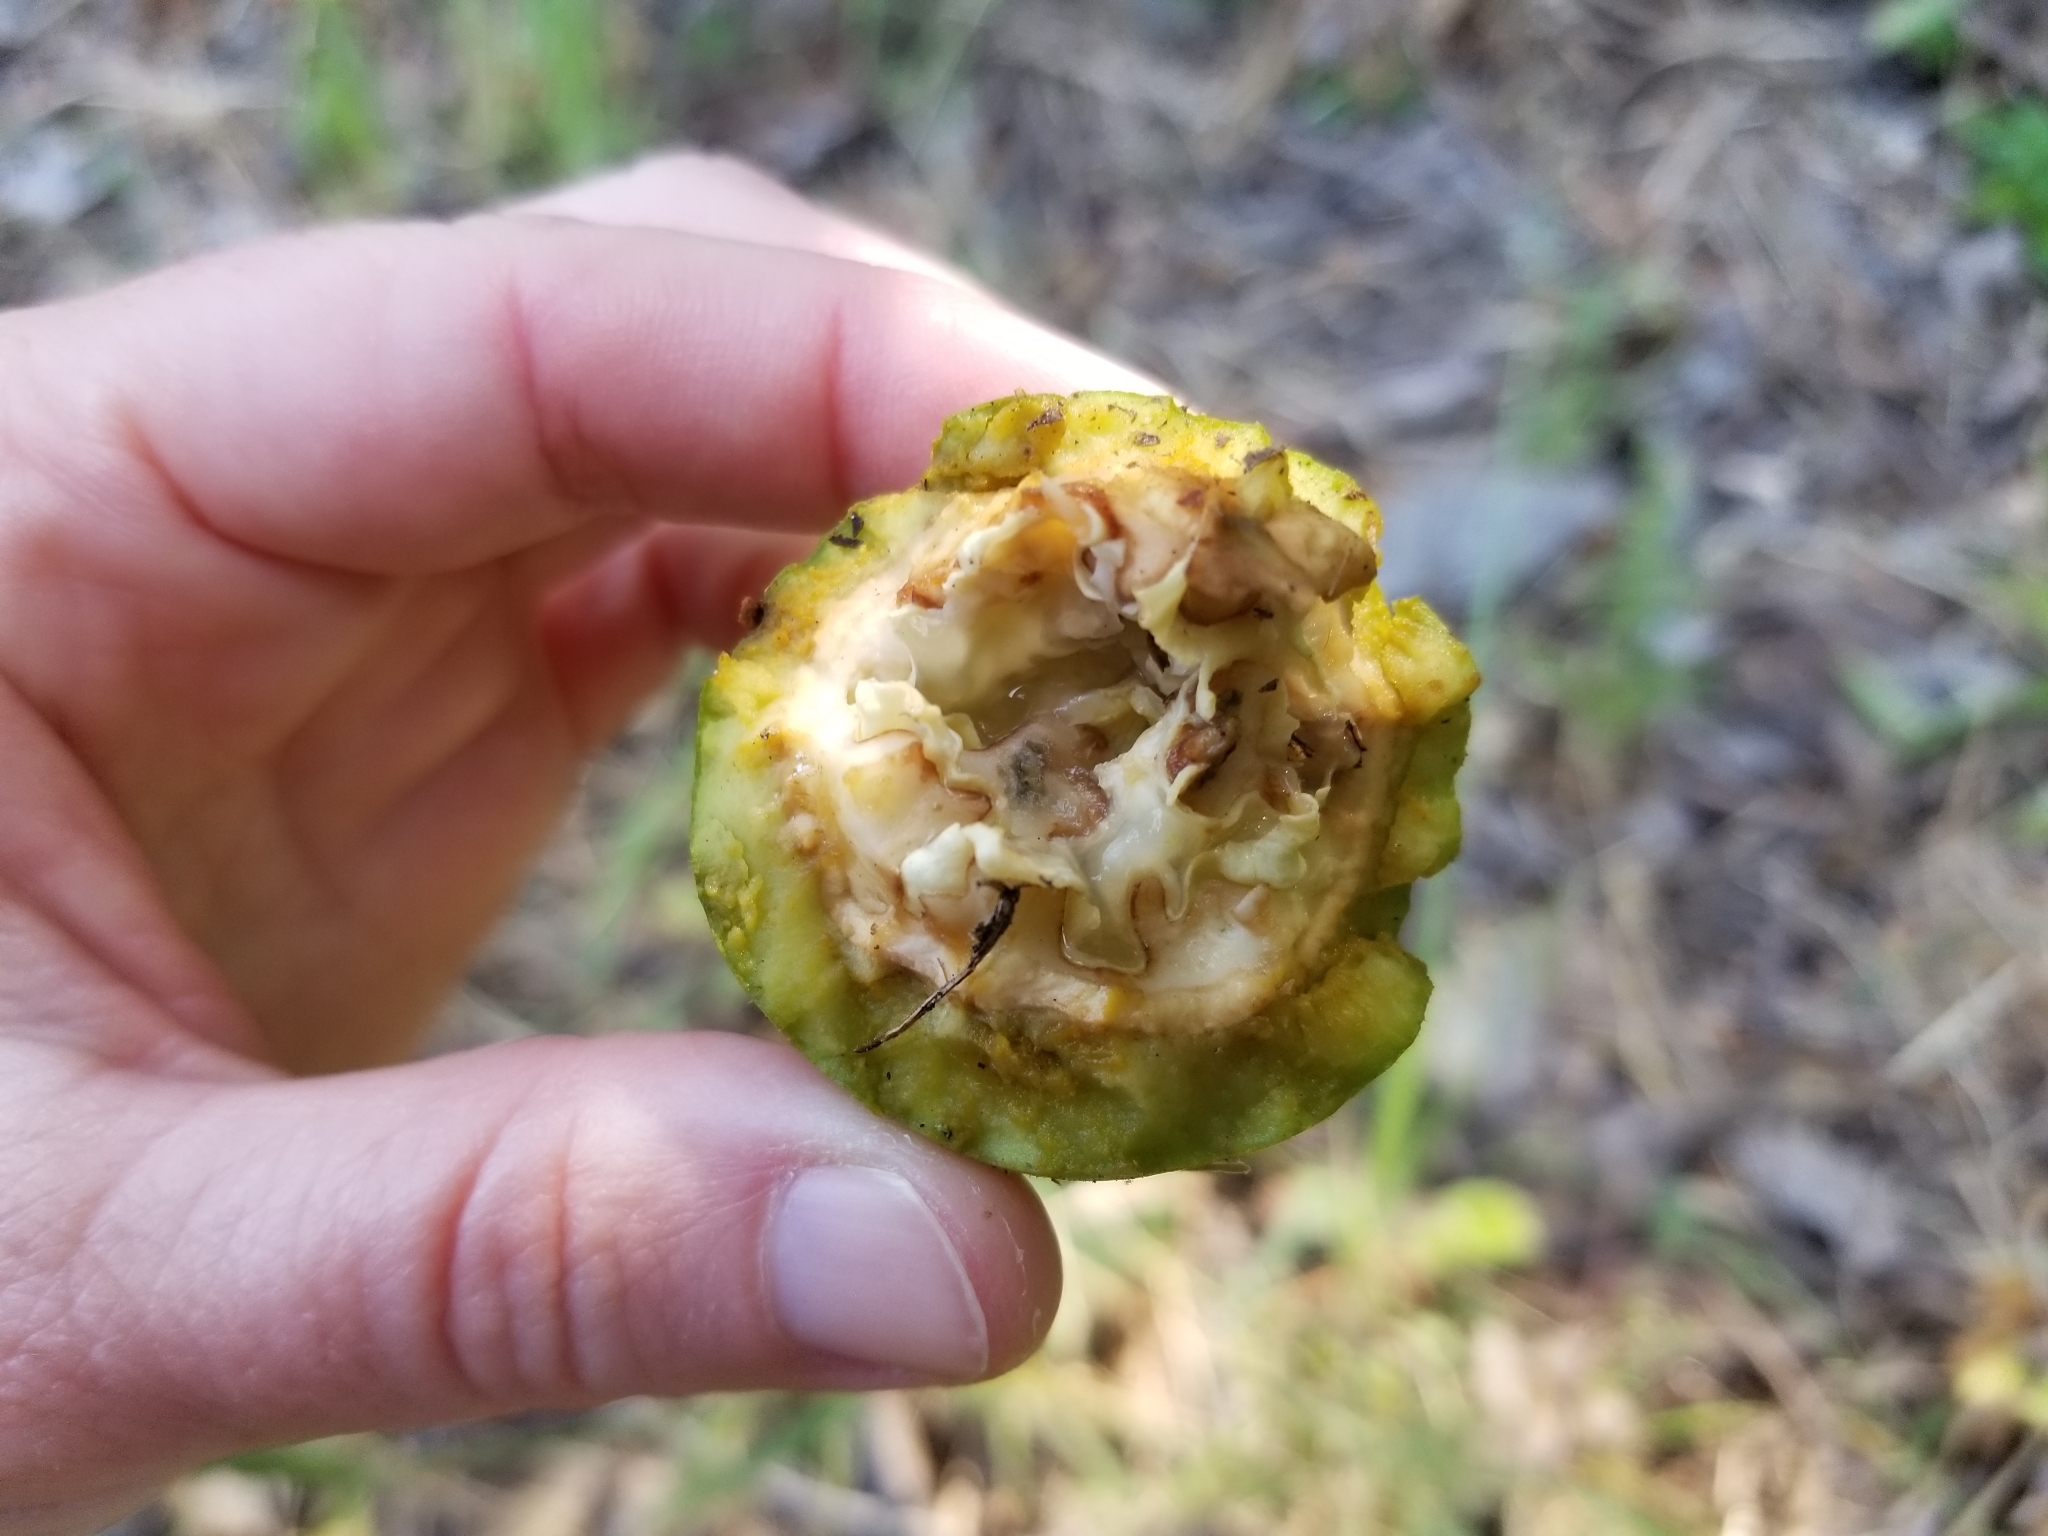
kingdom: Plantae
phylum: Tracheophyta
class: Magnoliopsida
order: Fagales
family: Juglandaceae
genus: Juglans
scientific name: Juglans regia
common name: Walnut
